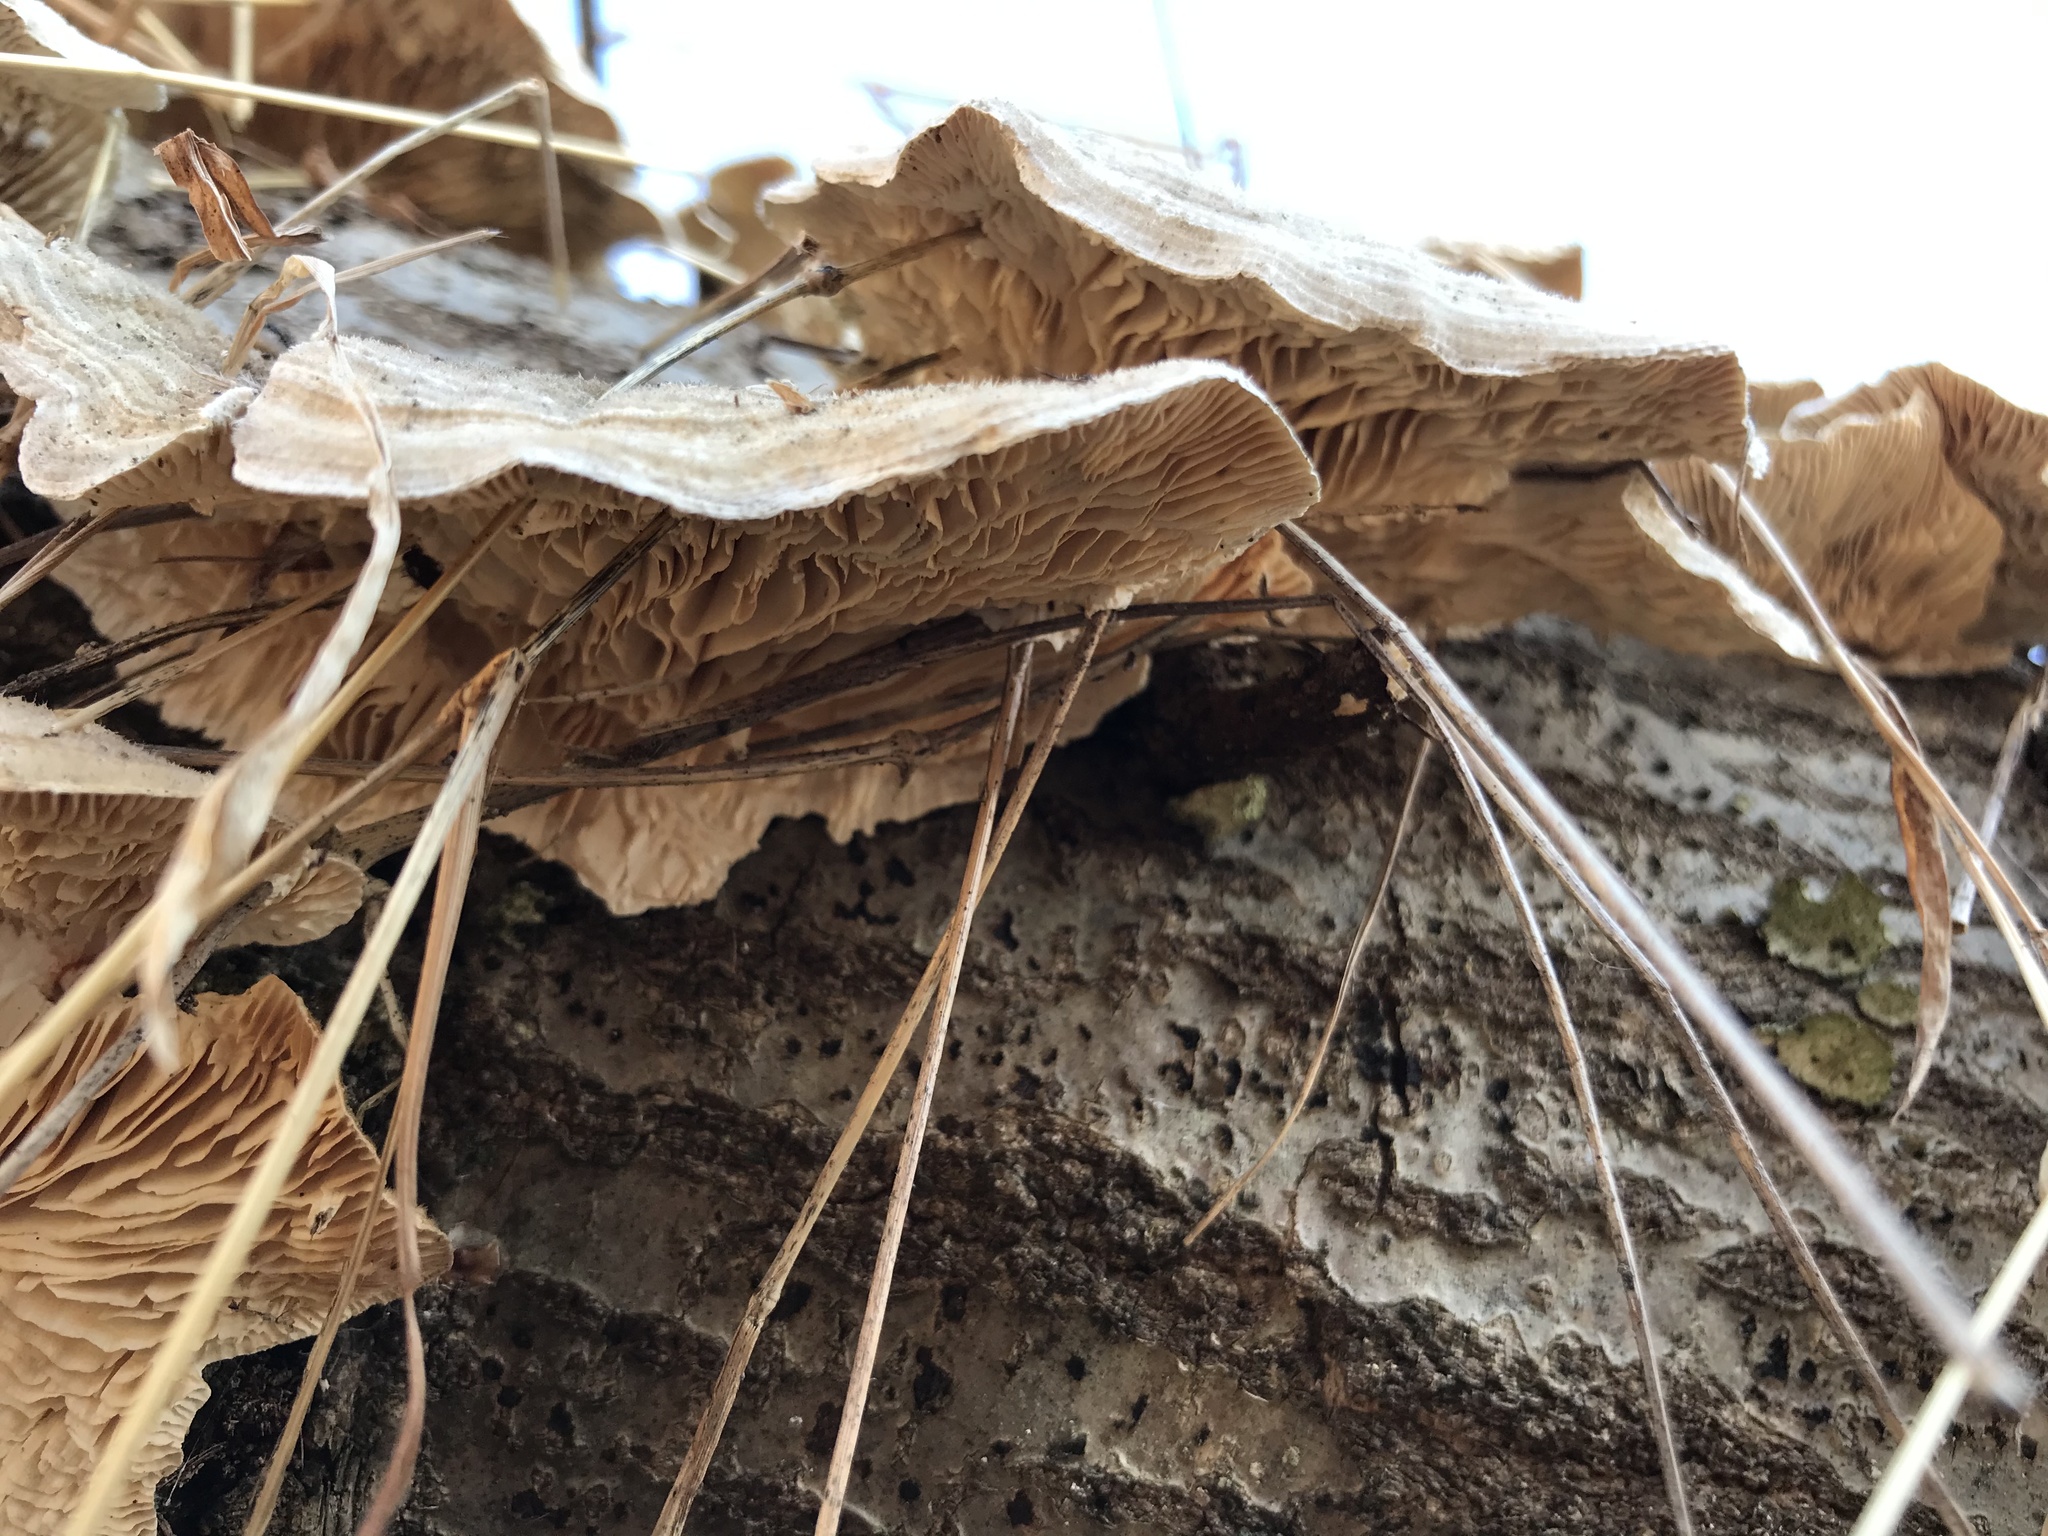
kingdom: Fungi
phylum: Basidiomycota
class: Agaricomycetes
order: Polyporales
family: Polyporaceae
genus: Lenzites
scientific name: Lenzites betulinus
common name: Birch mazegill
